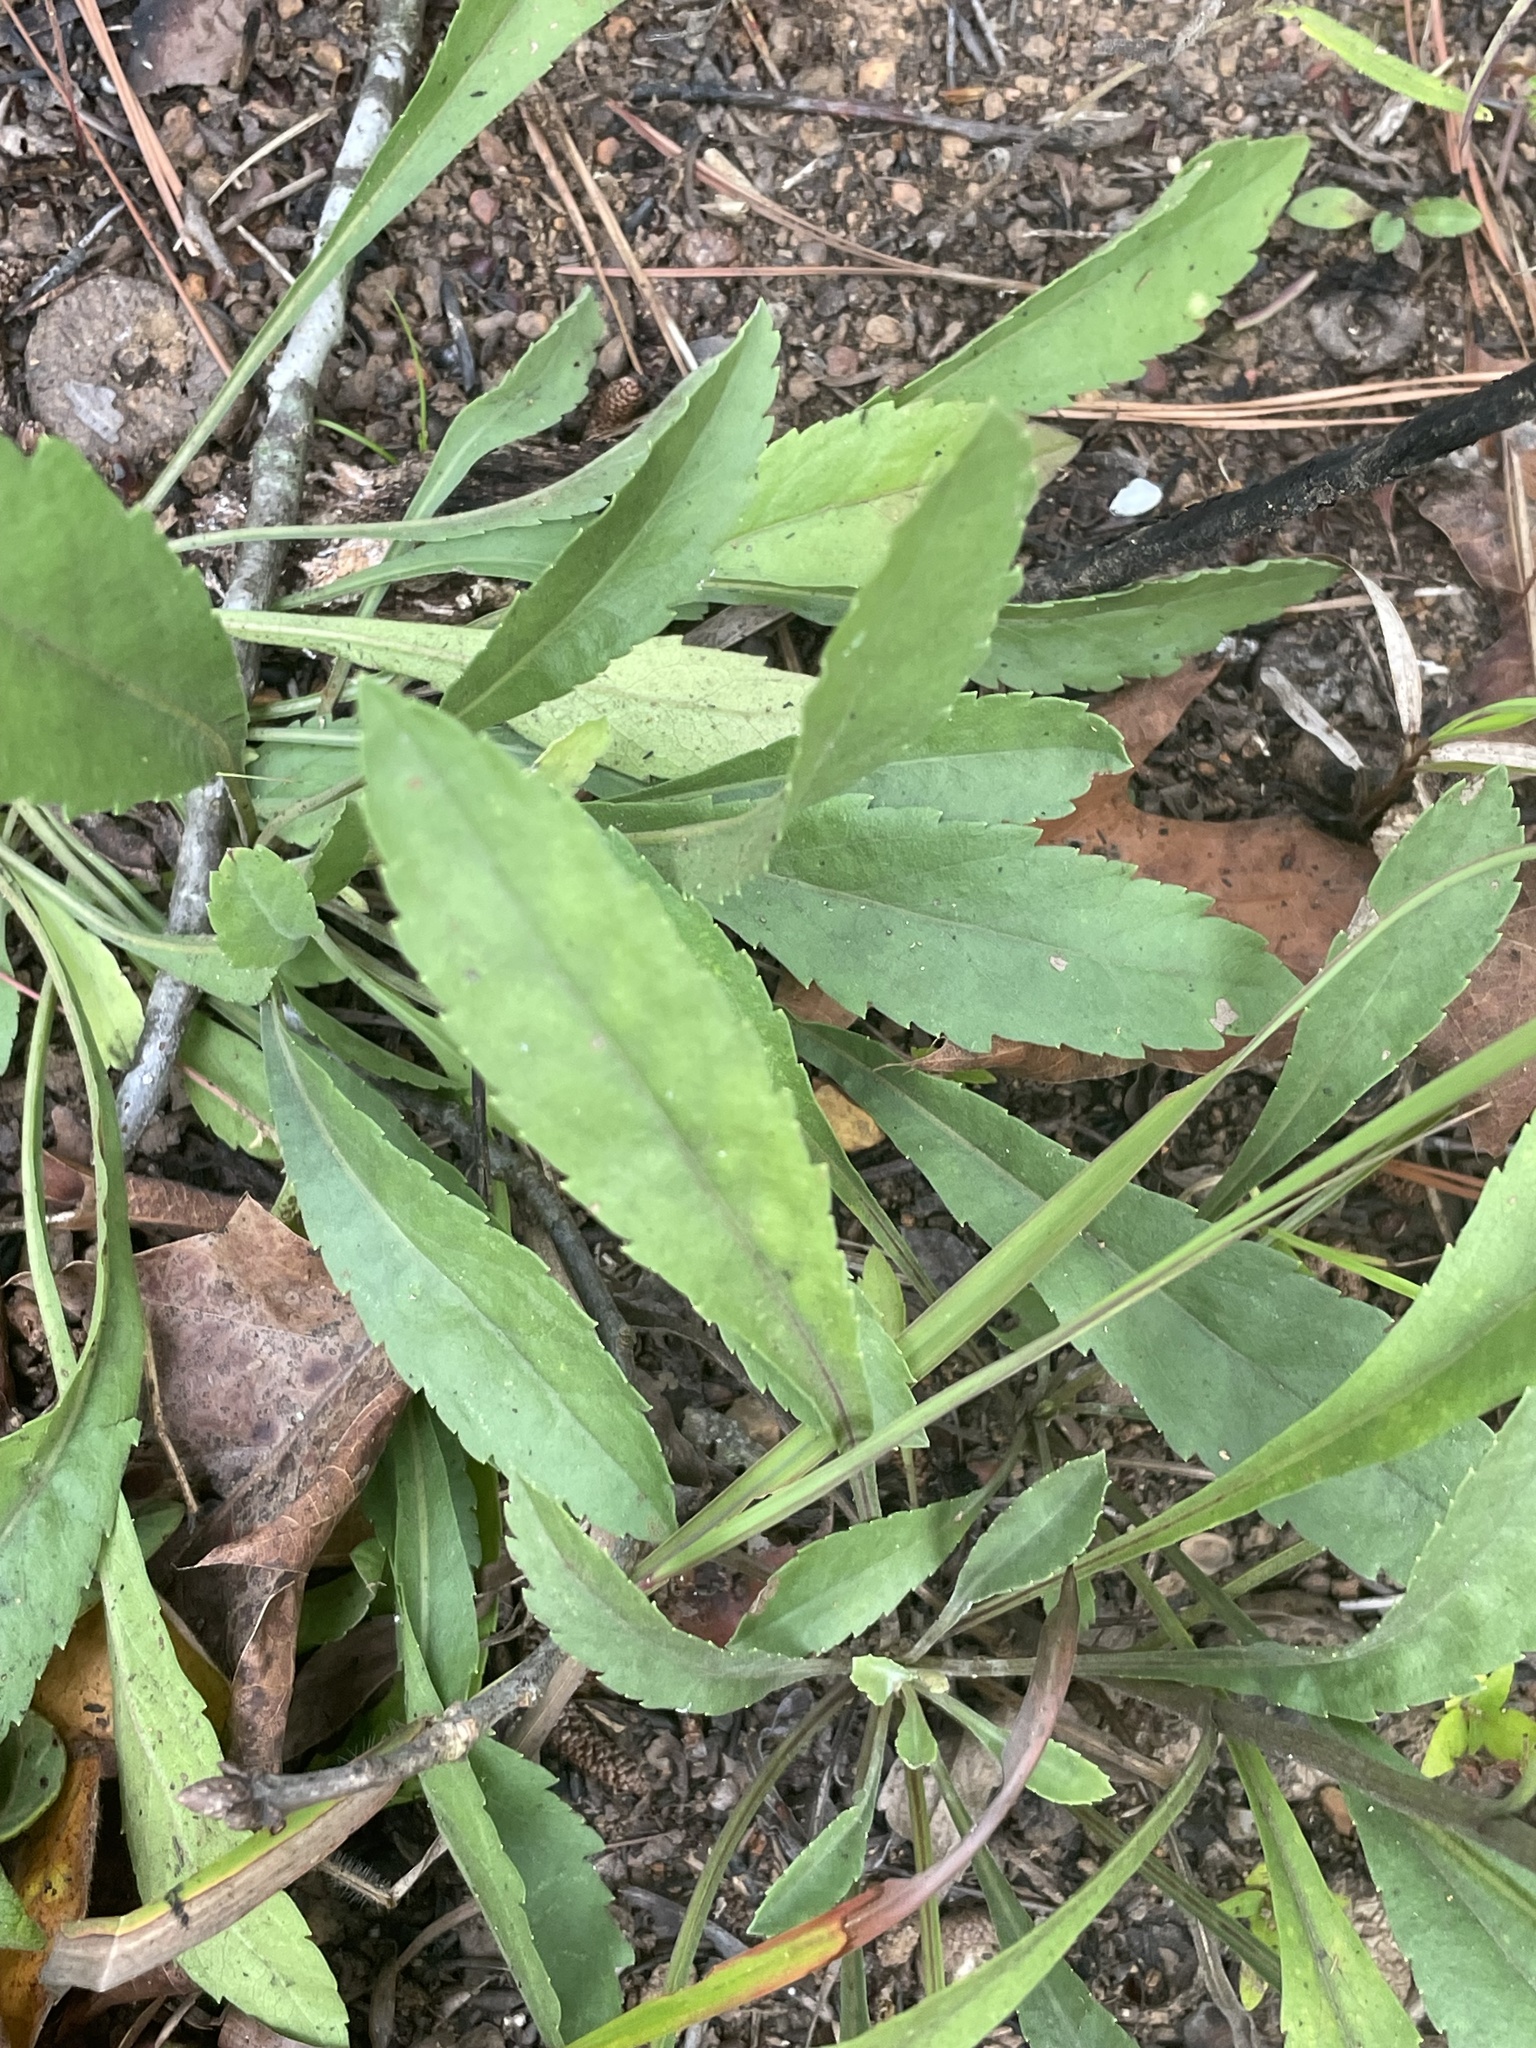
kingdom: Plantae
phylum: Tracheophyta
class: Magnoliopsida
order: Asterales
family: Asteraceae
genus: Solidago
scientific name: Solidago nemoralis
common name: Grey goldenrod
